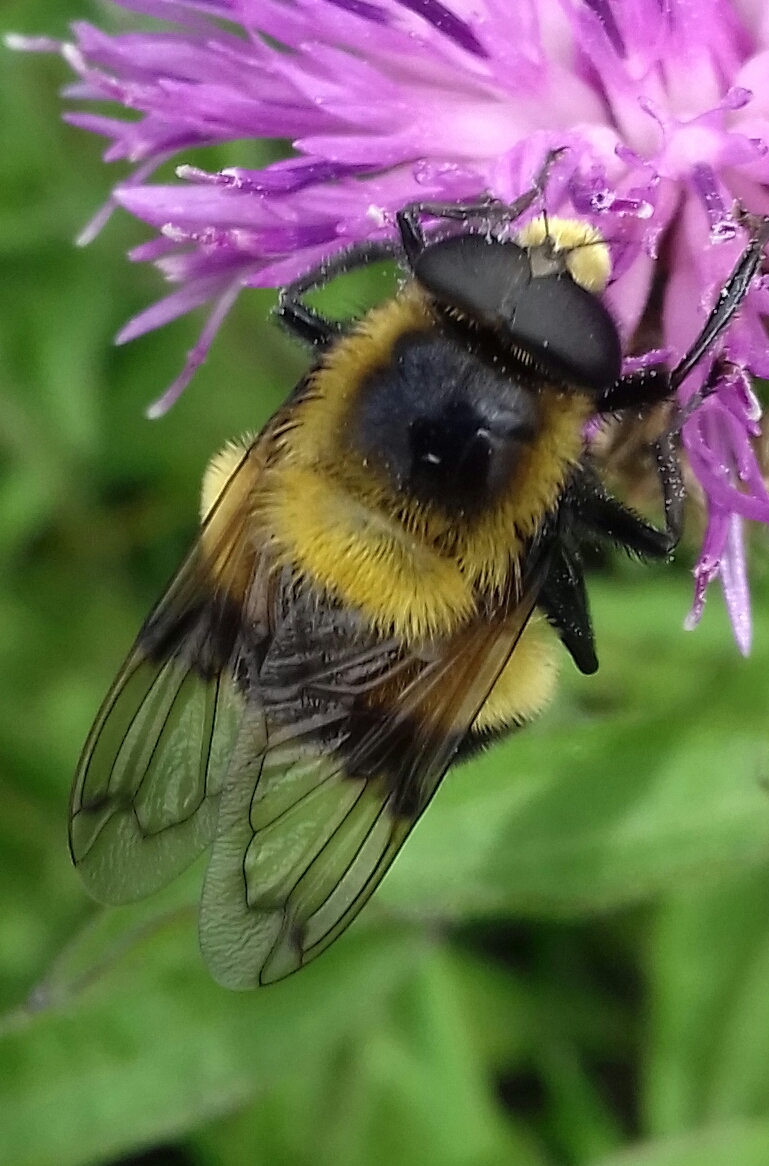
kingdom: Animalia
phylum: Arthropoda
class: Insecta
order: Diptera
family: Syrphidae
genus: Volucella
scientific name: Volucella bombylans
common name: Bumble bee hover fly
